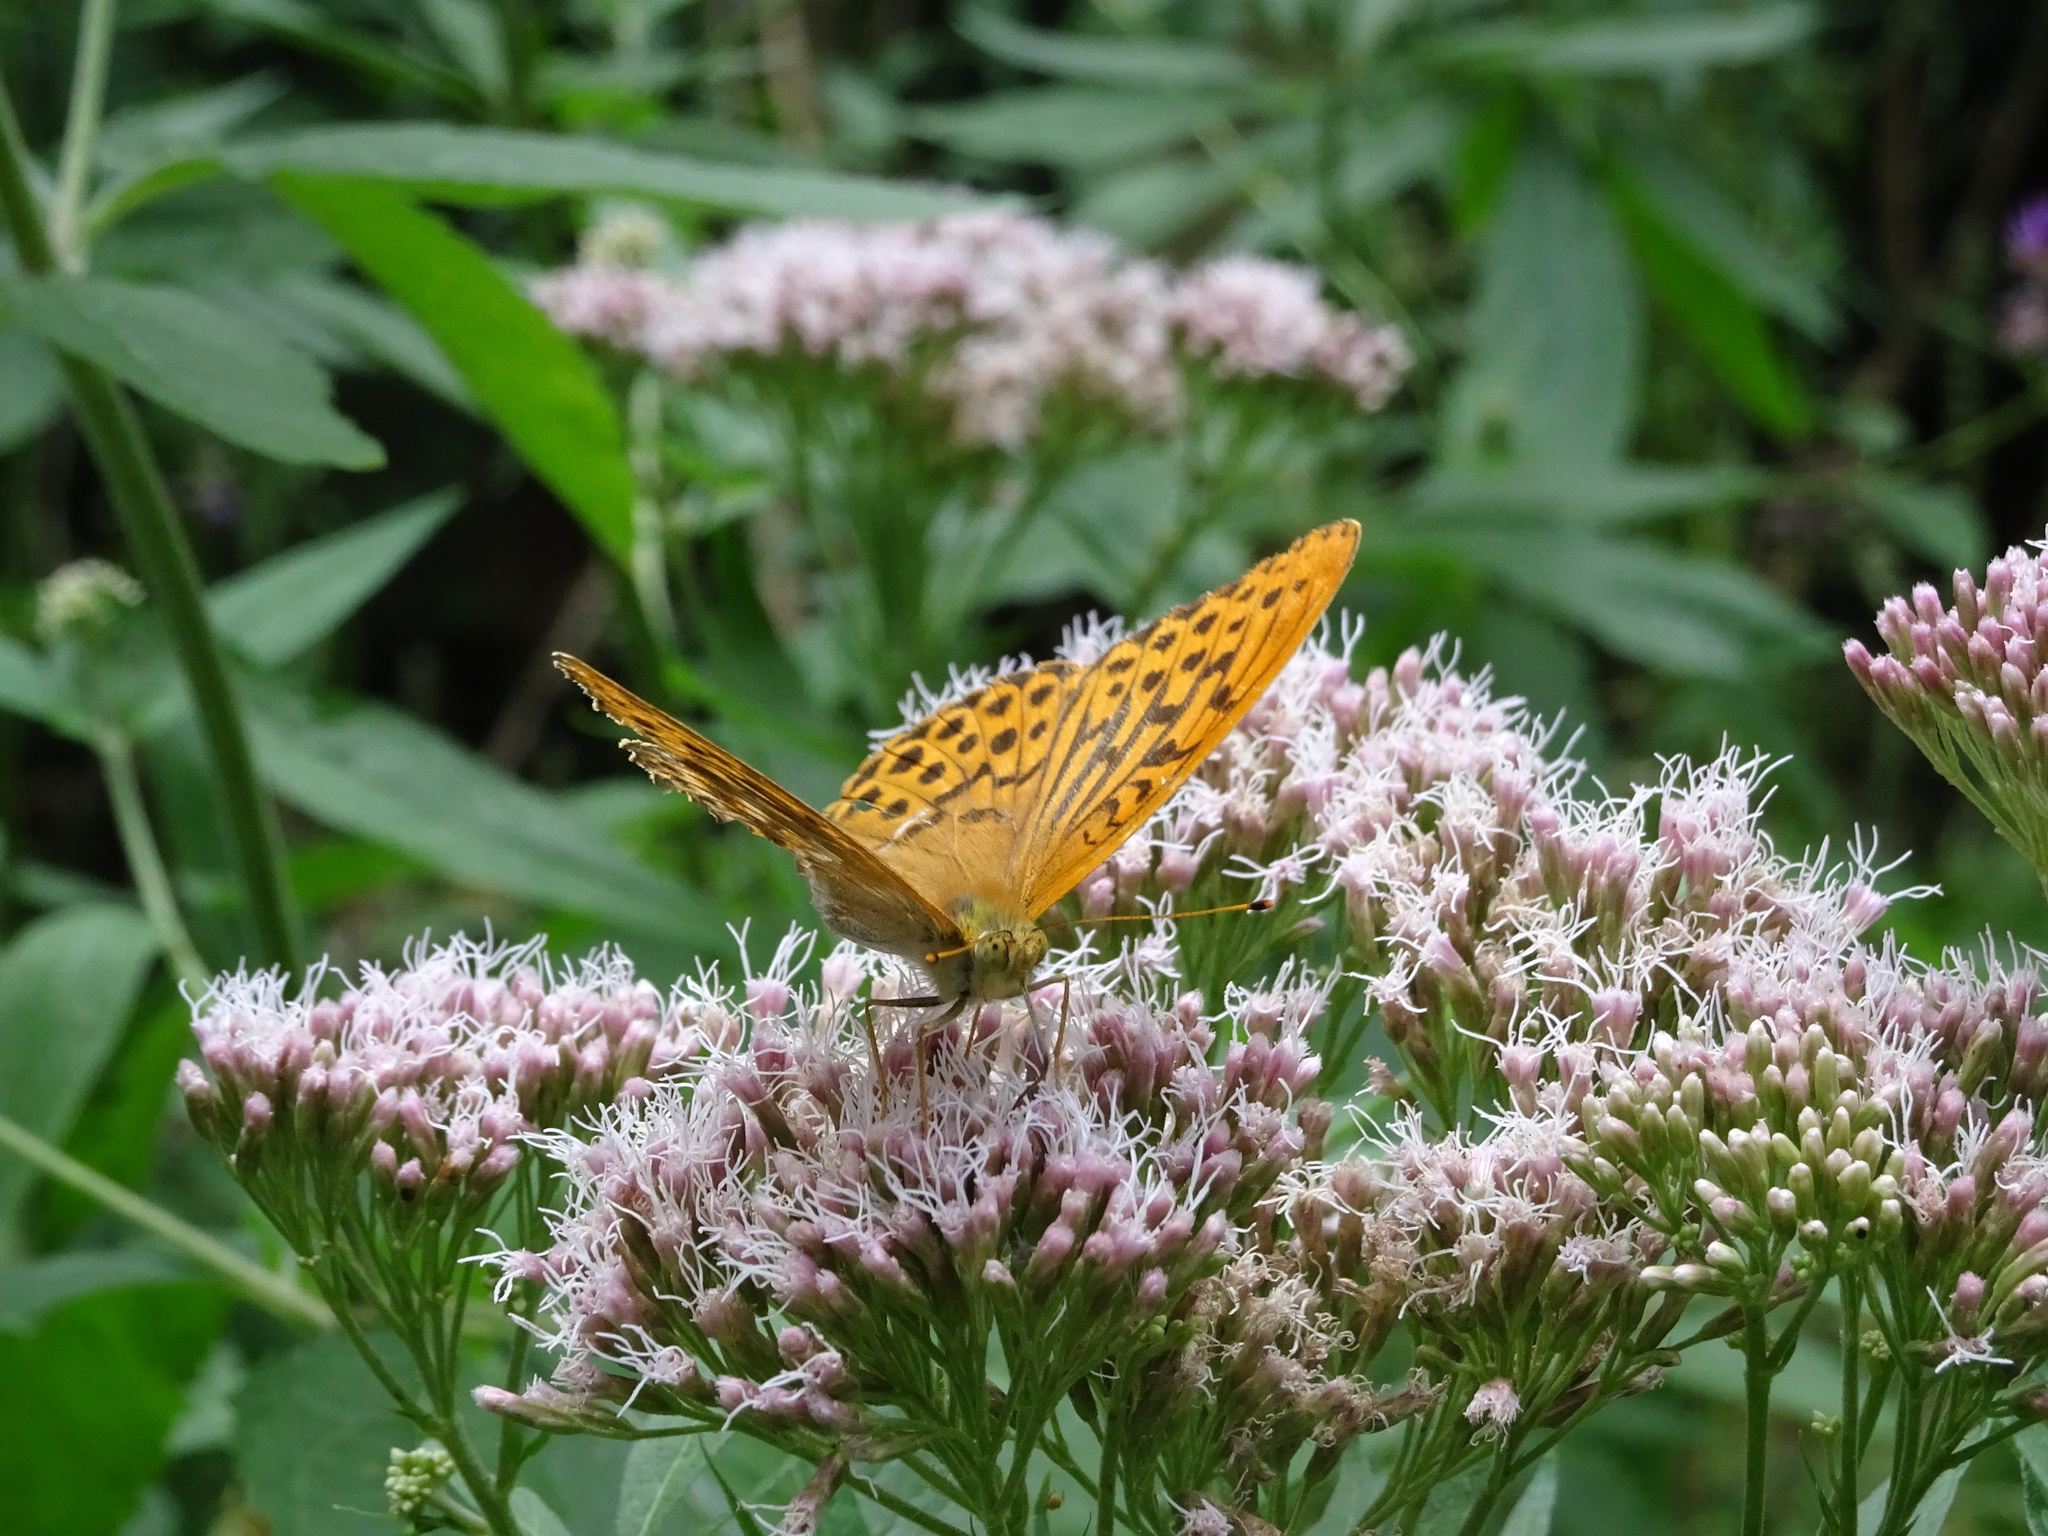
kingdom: Animalia
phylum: Arthropoda
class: Insecta
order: Lepidoptera
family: Nymphalidae
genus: Argynnis
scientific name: Argynnis paphia
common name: Silver-washed fritillary
